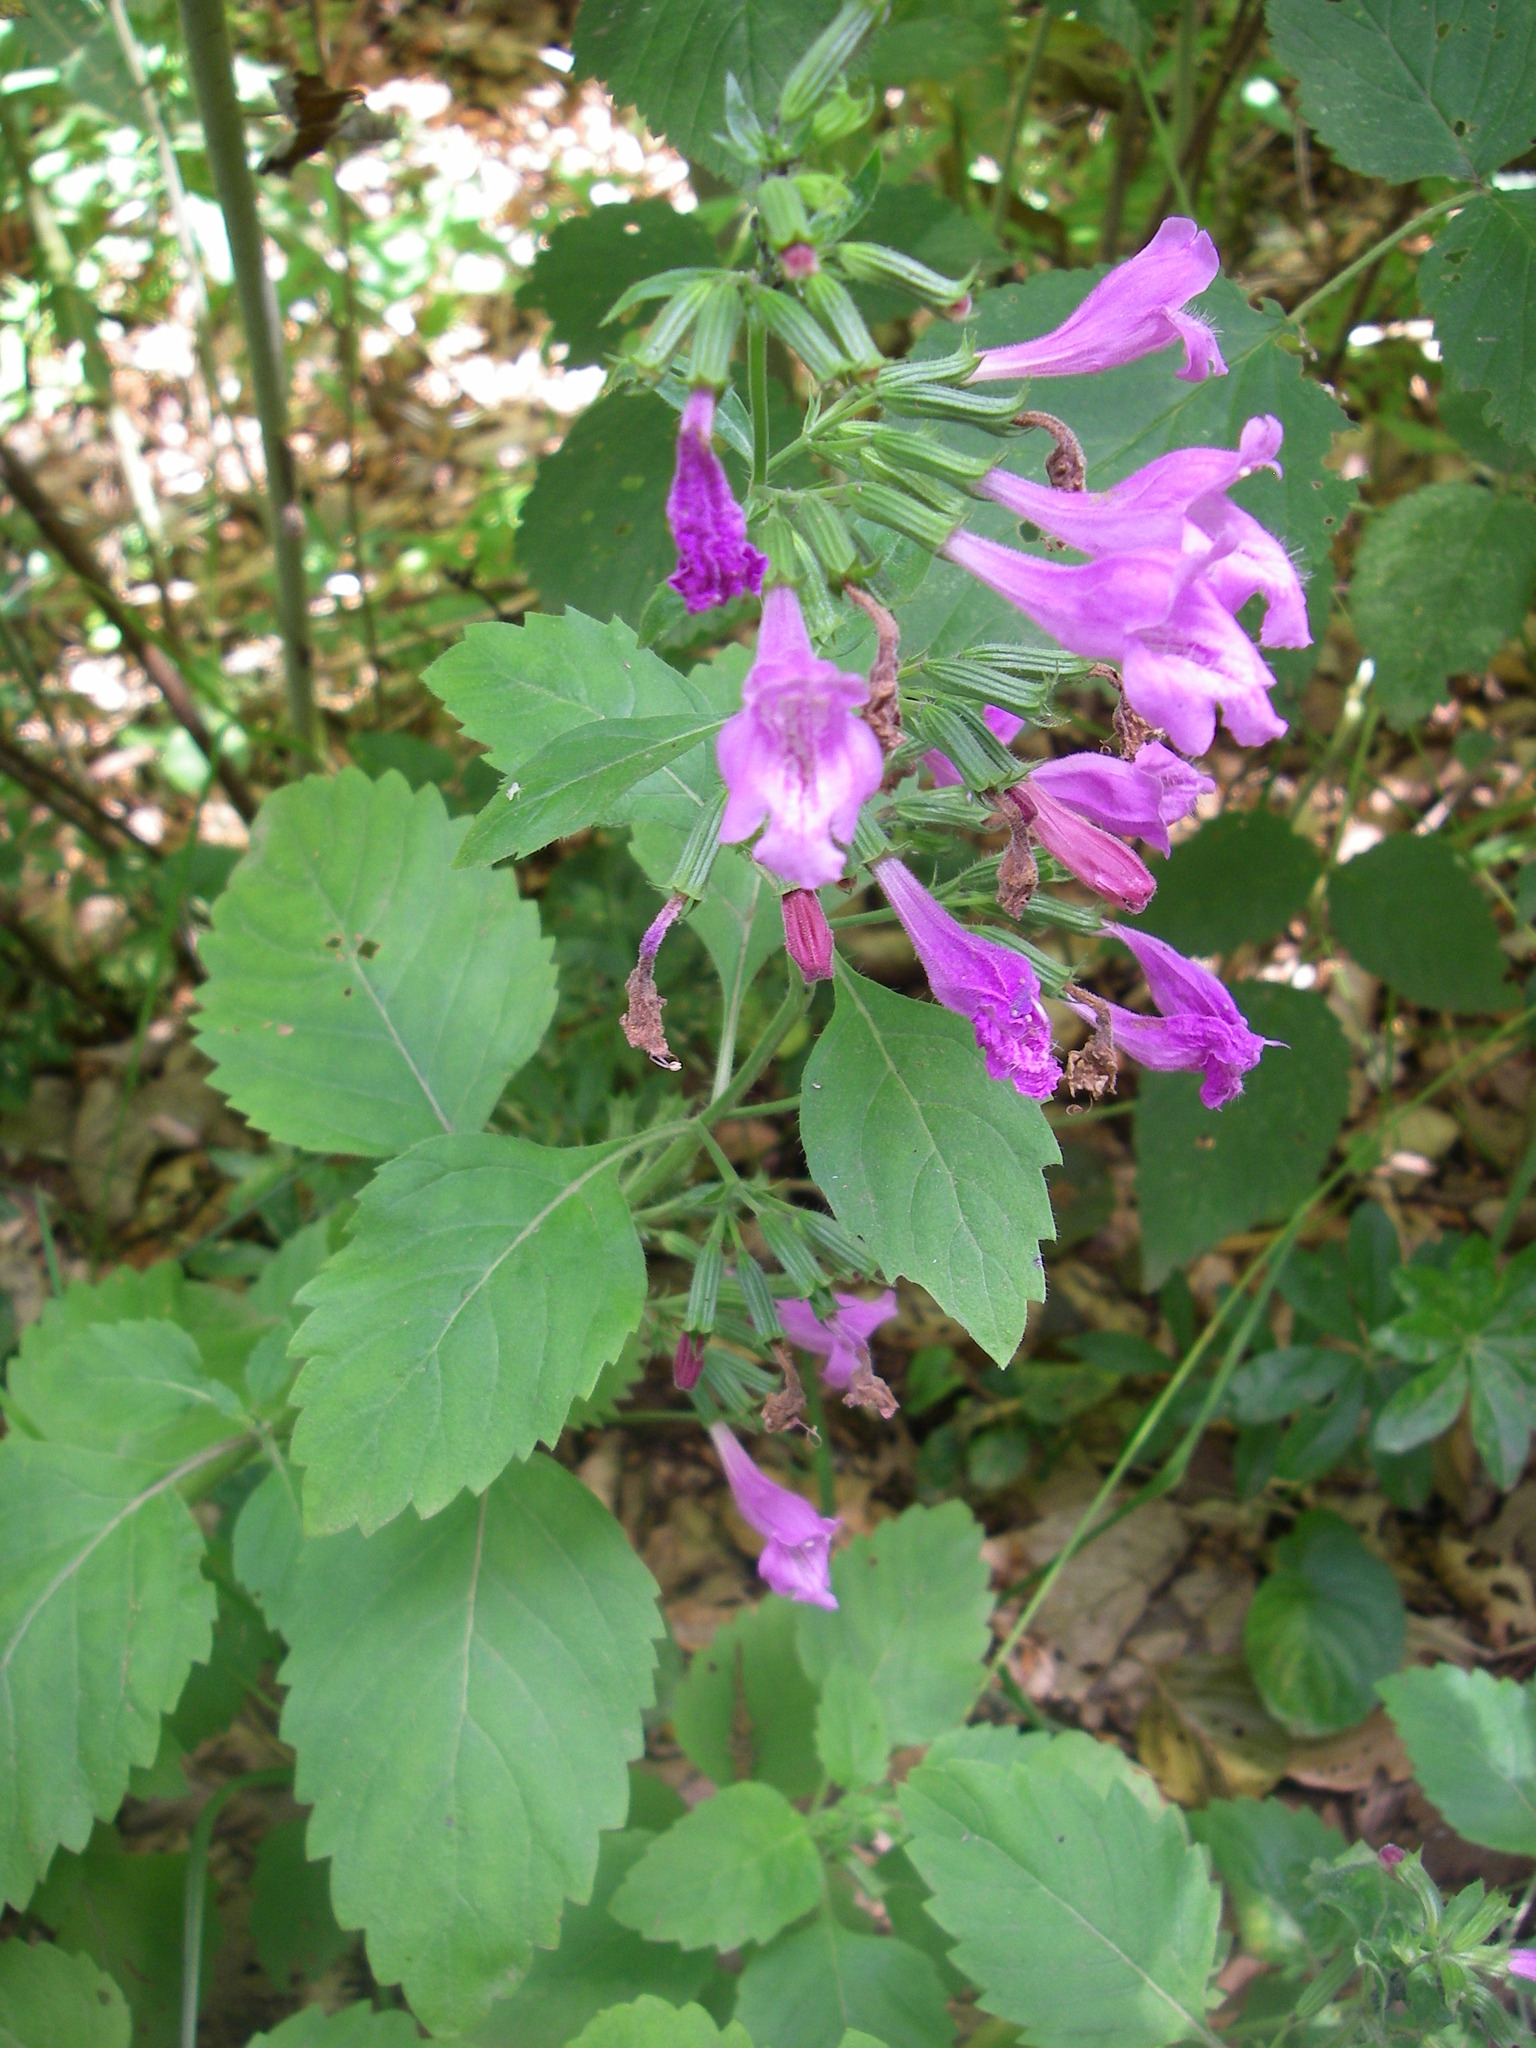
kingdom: Plantae
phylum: Tracheophyta
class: Magnoliopsida
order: Lamiales
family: Lamiaceae
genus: Clinopodium
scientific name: Clinopodium grandiflorum
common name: Greater calamint
